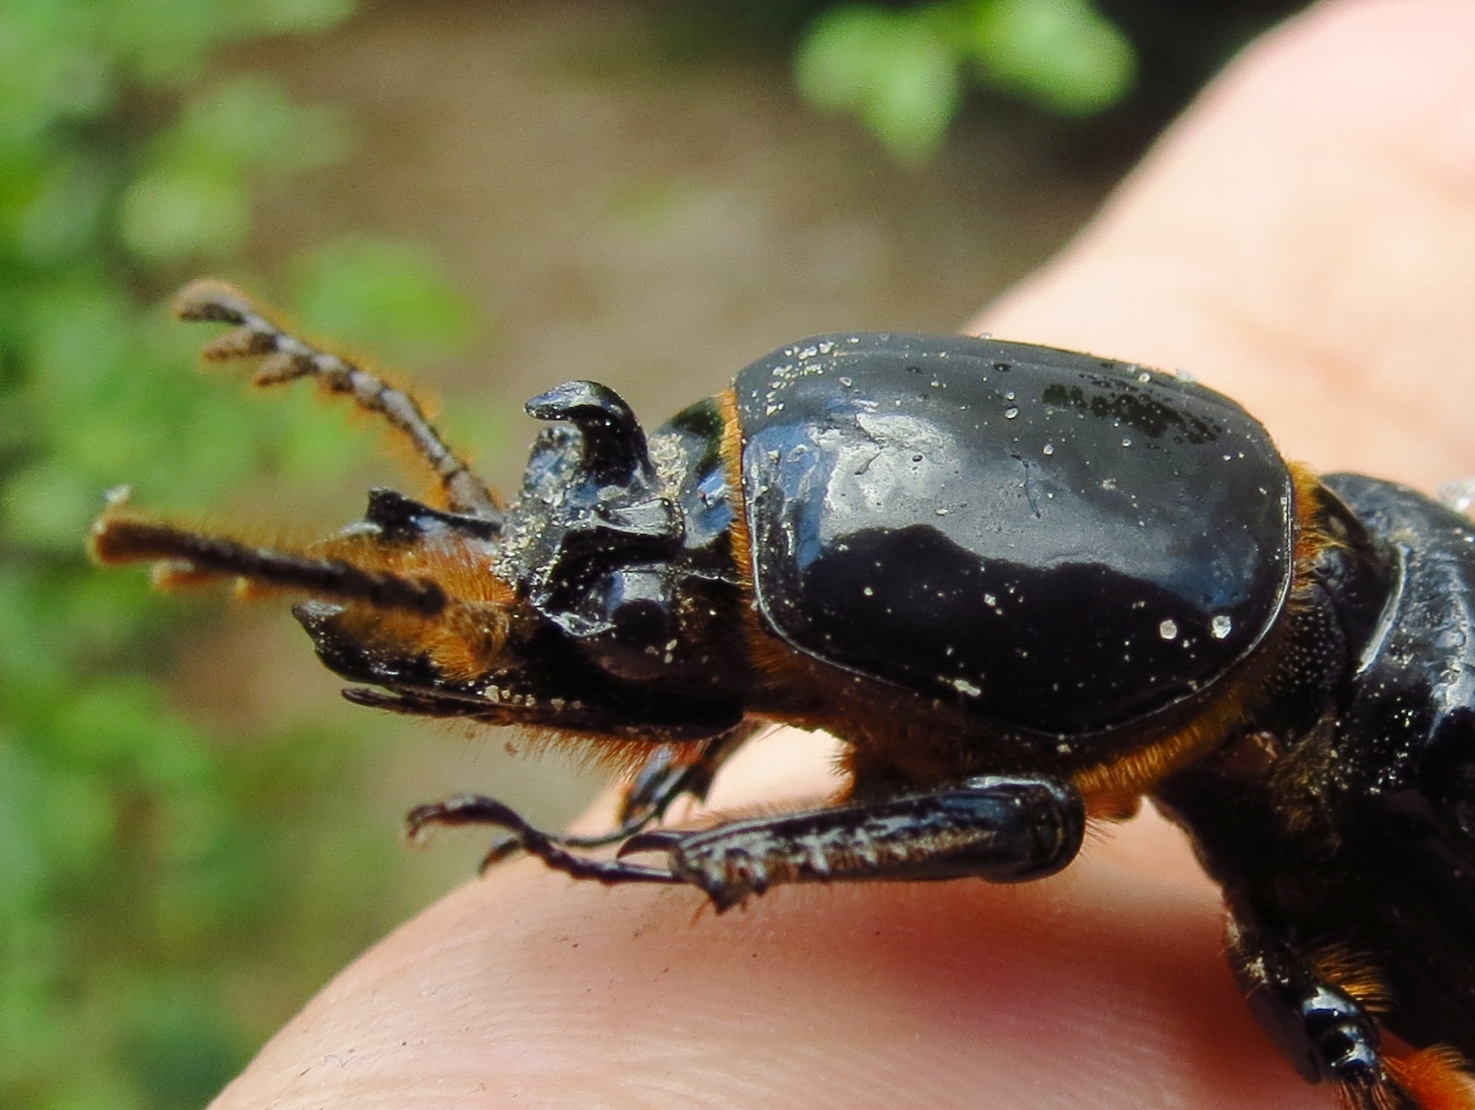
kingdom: Animalia
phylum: Arthropoda
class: Insecta
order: Coleoptera
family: Passalidae
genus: Odontotaenius
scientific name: Odontotaenius disjunctus
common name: Patent leather beetle
